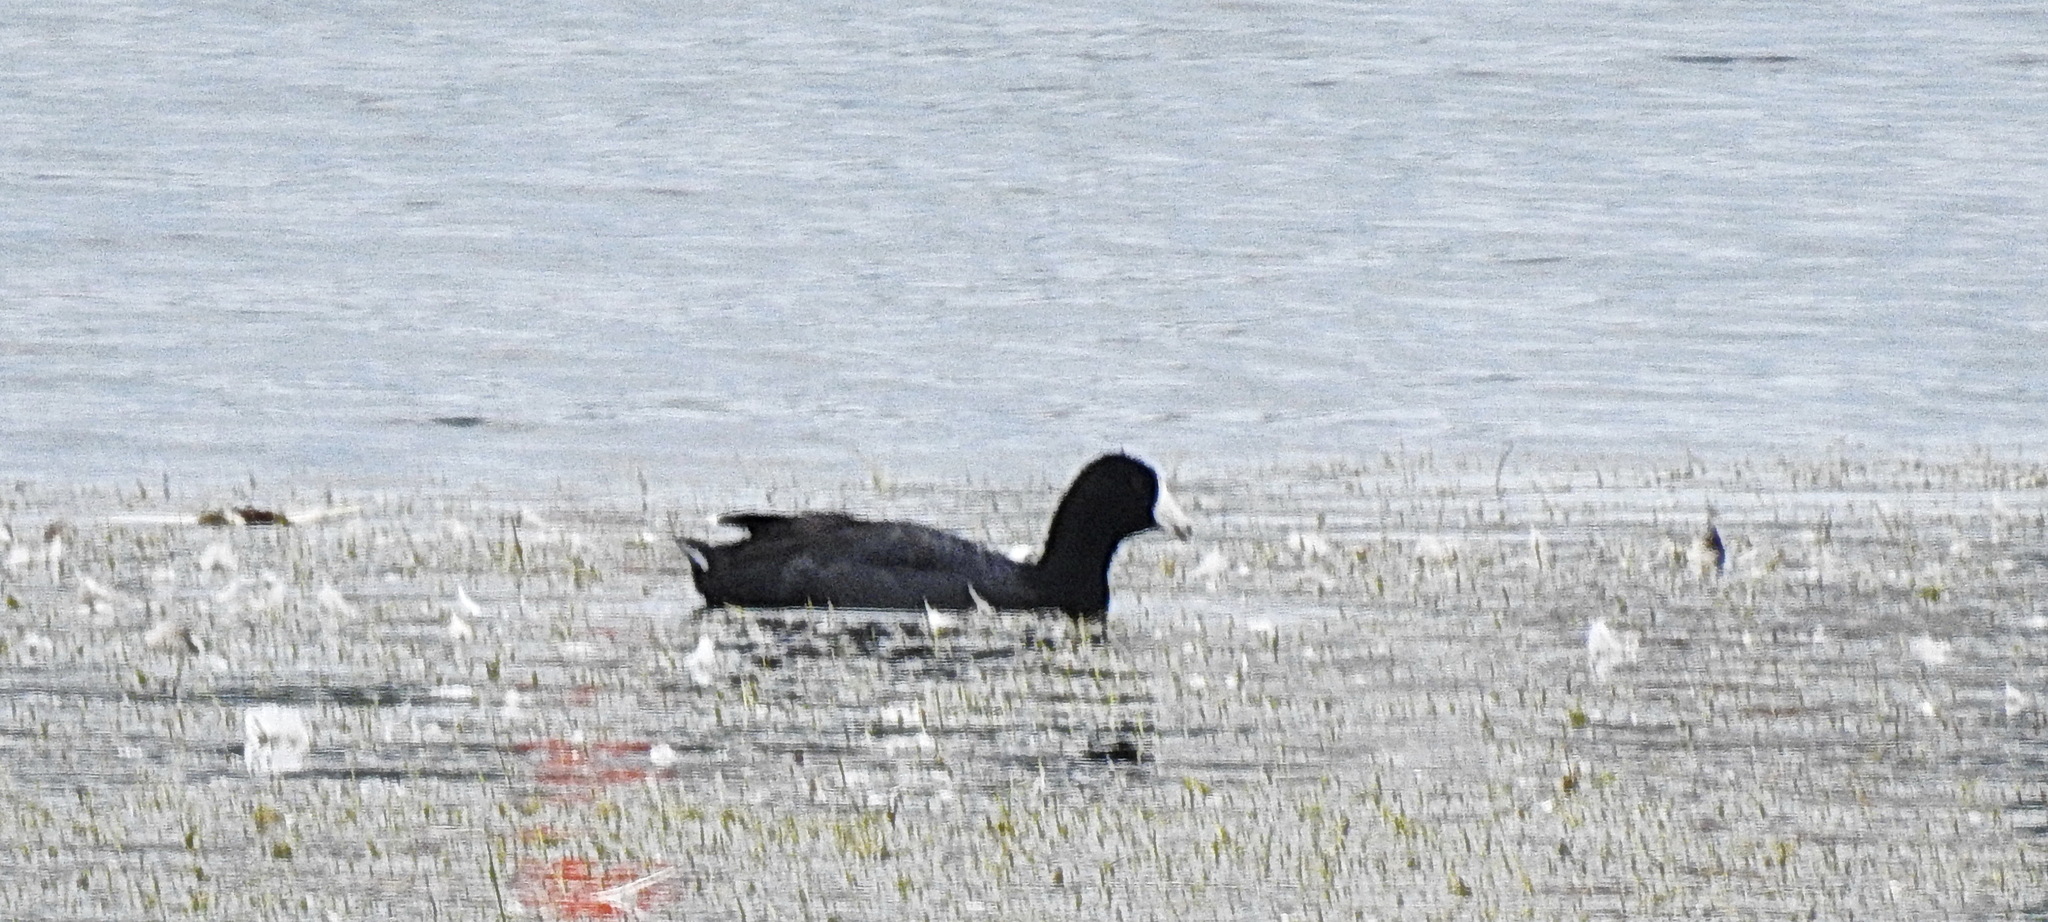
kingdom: Animalia
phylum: Chordata
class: Aves
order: Gruiformes
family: Rallidae
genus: Fulica
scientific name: Fulica americana
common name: American coot
